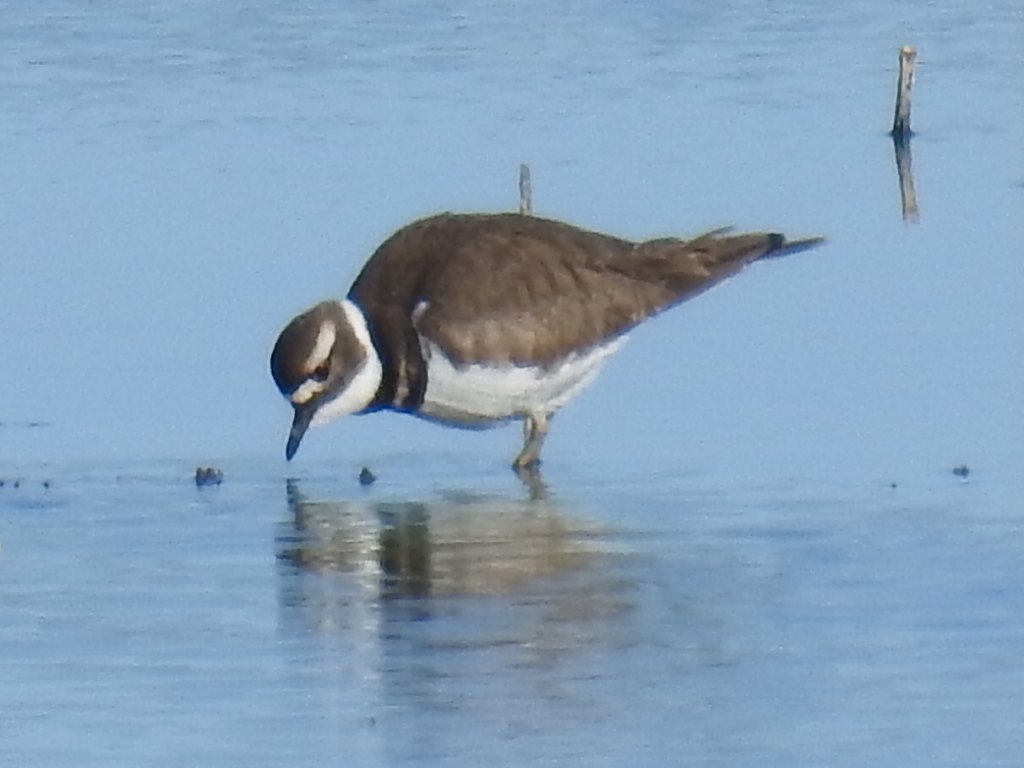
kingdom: Animalia
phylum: Chordata
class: Aves
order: Charadriiformes
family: Charadriidae
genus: Charadrius
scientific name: Charadrius vociferus
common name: Killdeer
